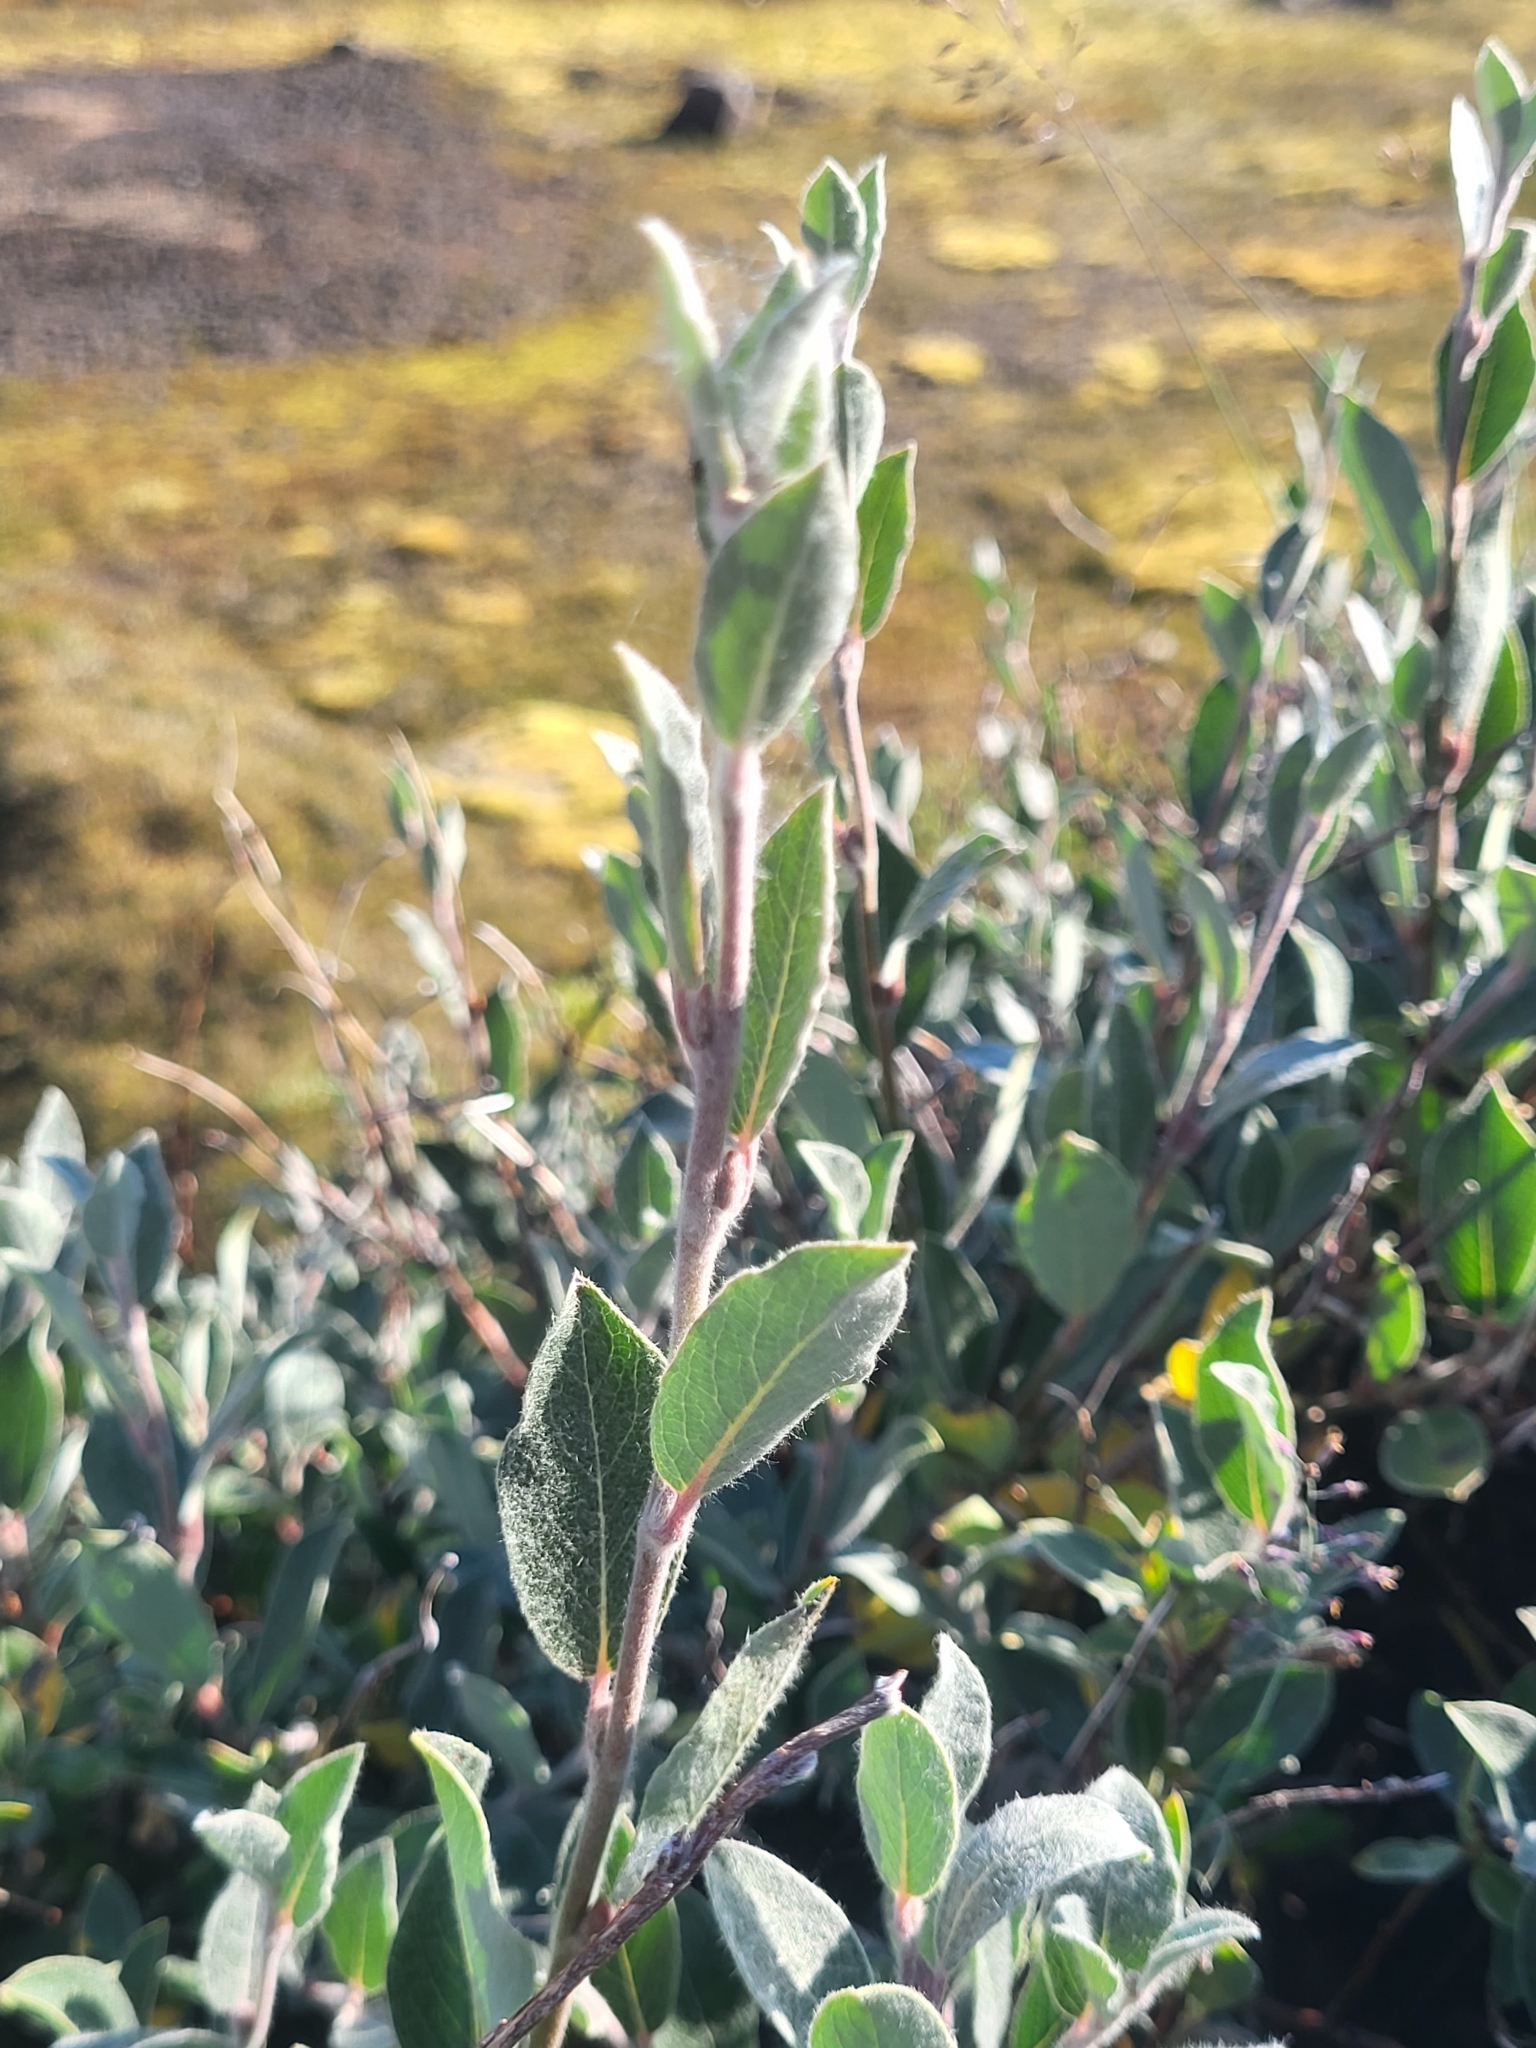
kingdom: Plantae
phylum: Tracheophyta
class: Magnoliopsida
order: Malpighiales
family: Salicaceae
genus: Salix
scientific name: Salix glauca
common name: Glaucous willow
